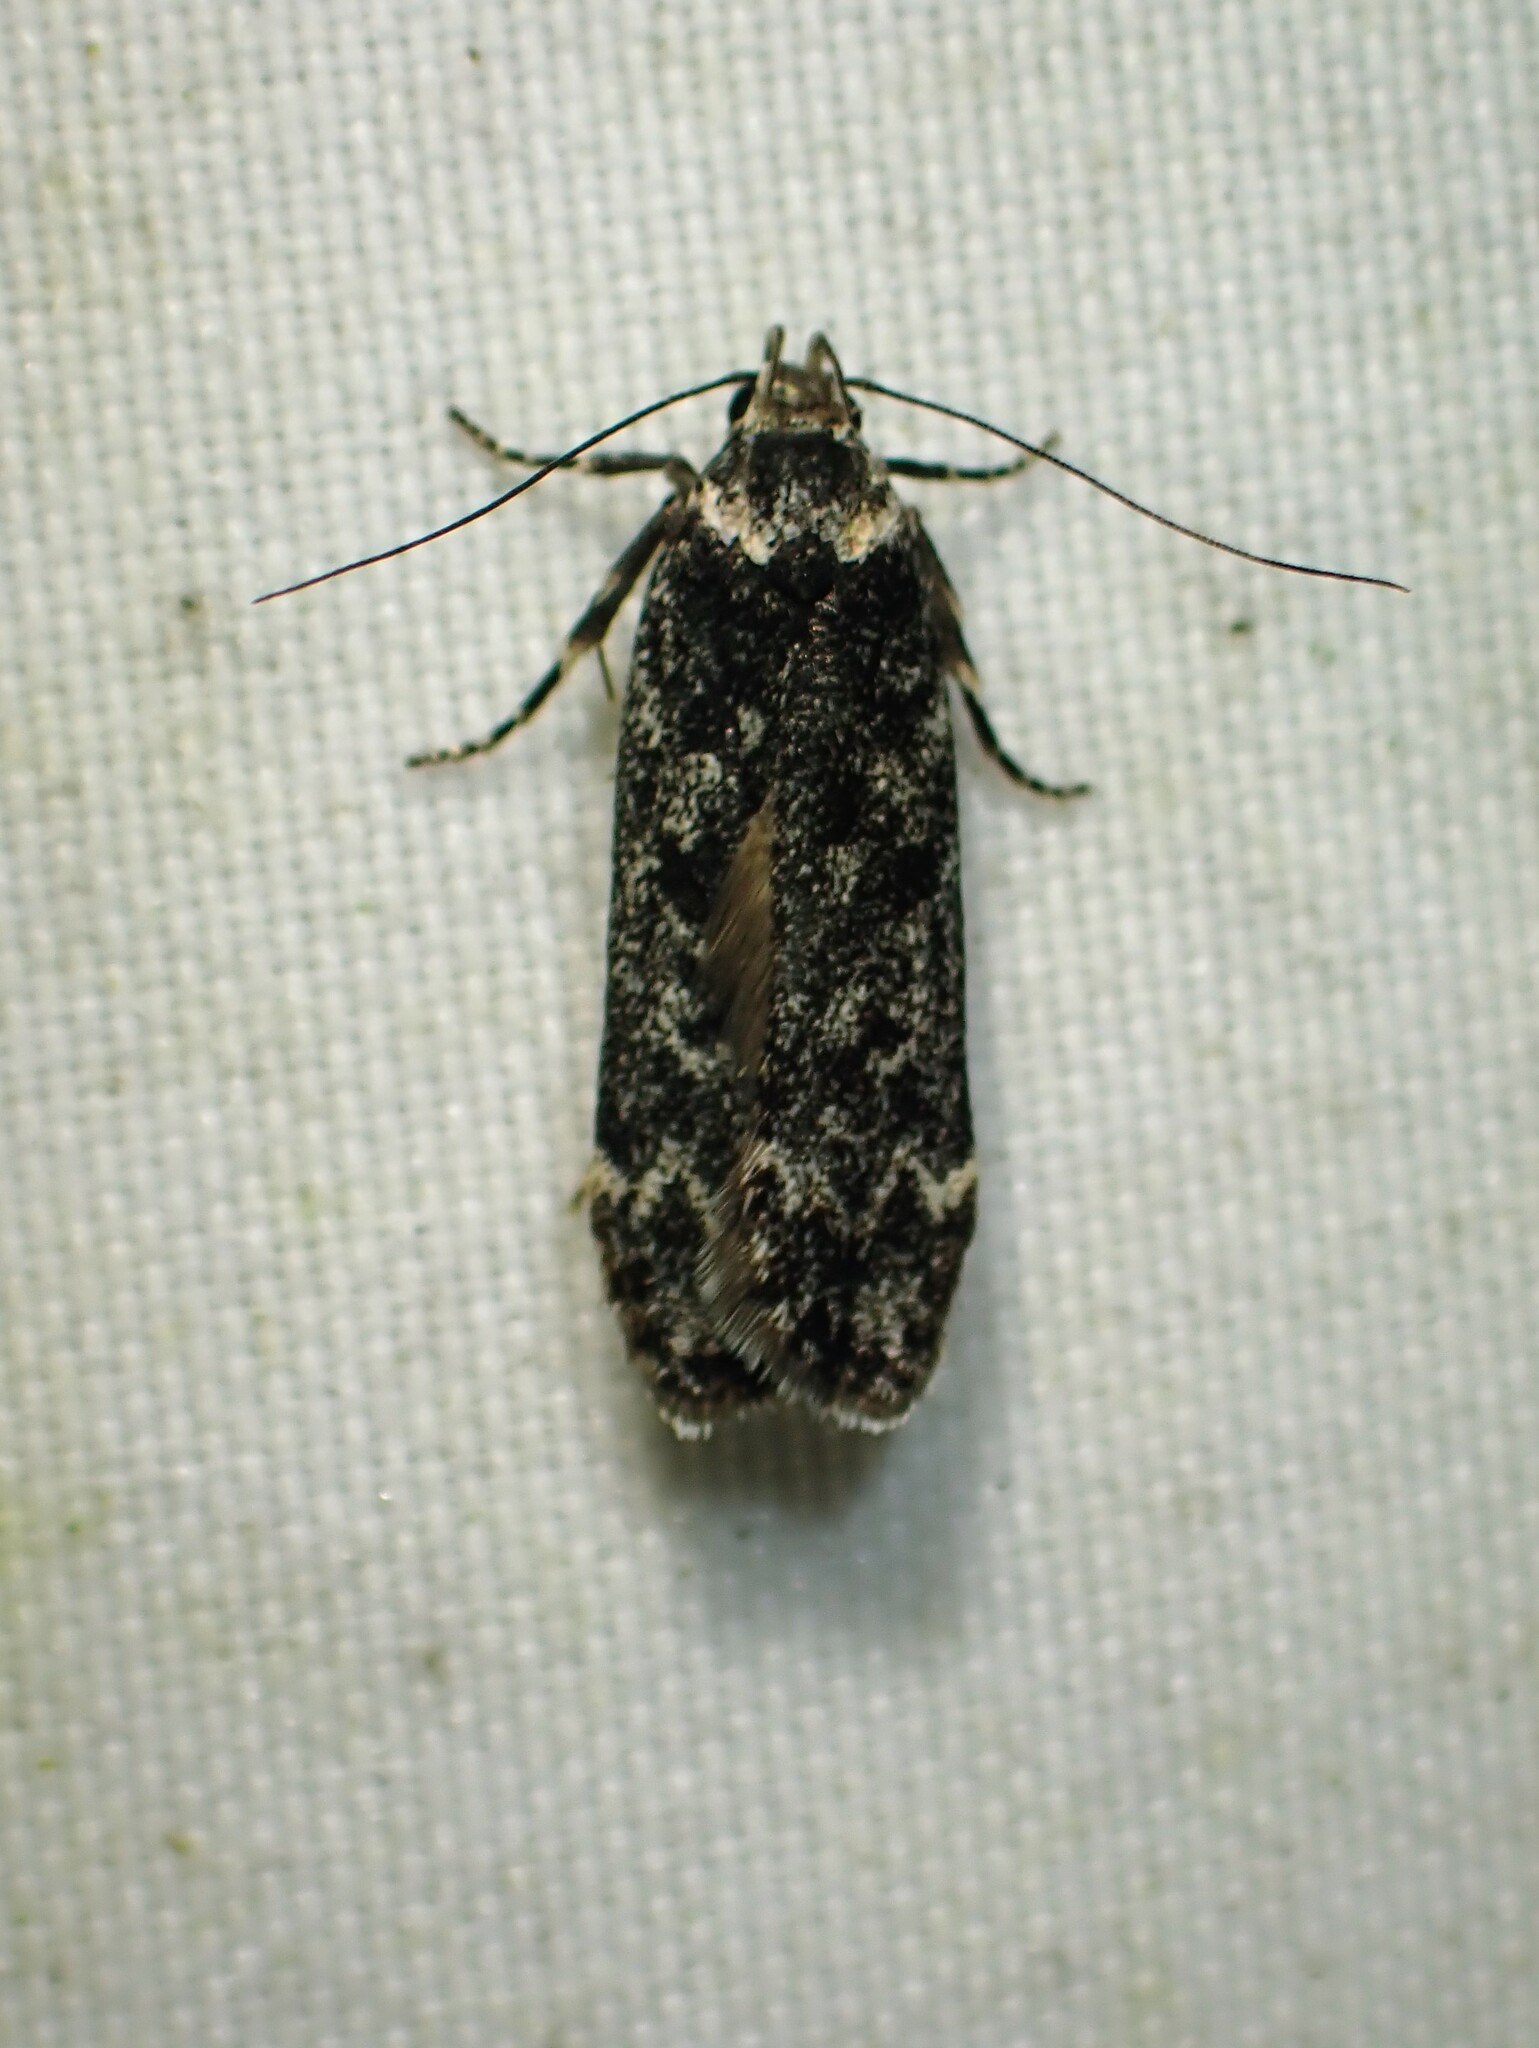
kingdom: Animalia
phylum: Arthropoda
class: Insecta
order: Lepidoptera
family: Gelechiidae
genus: Anacampsis
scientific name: Anacampsis niveopulvella
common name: Pale-headed aspen leafroller moth
